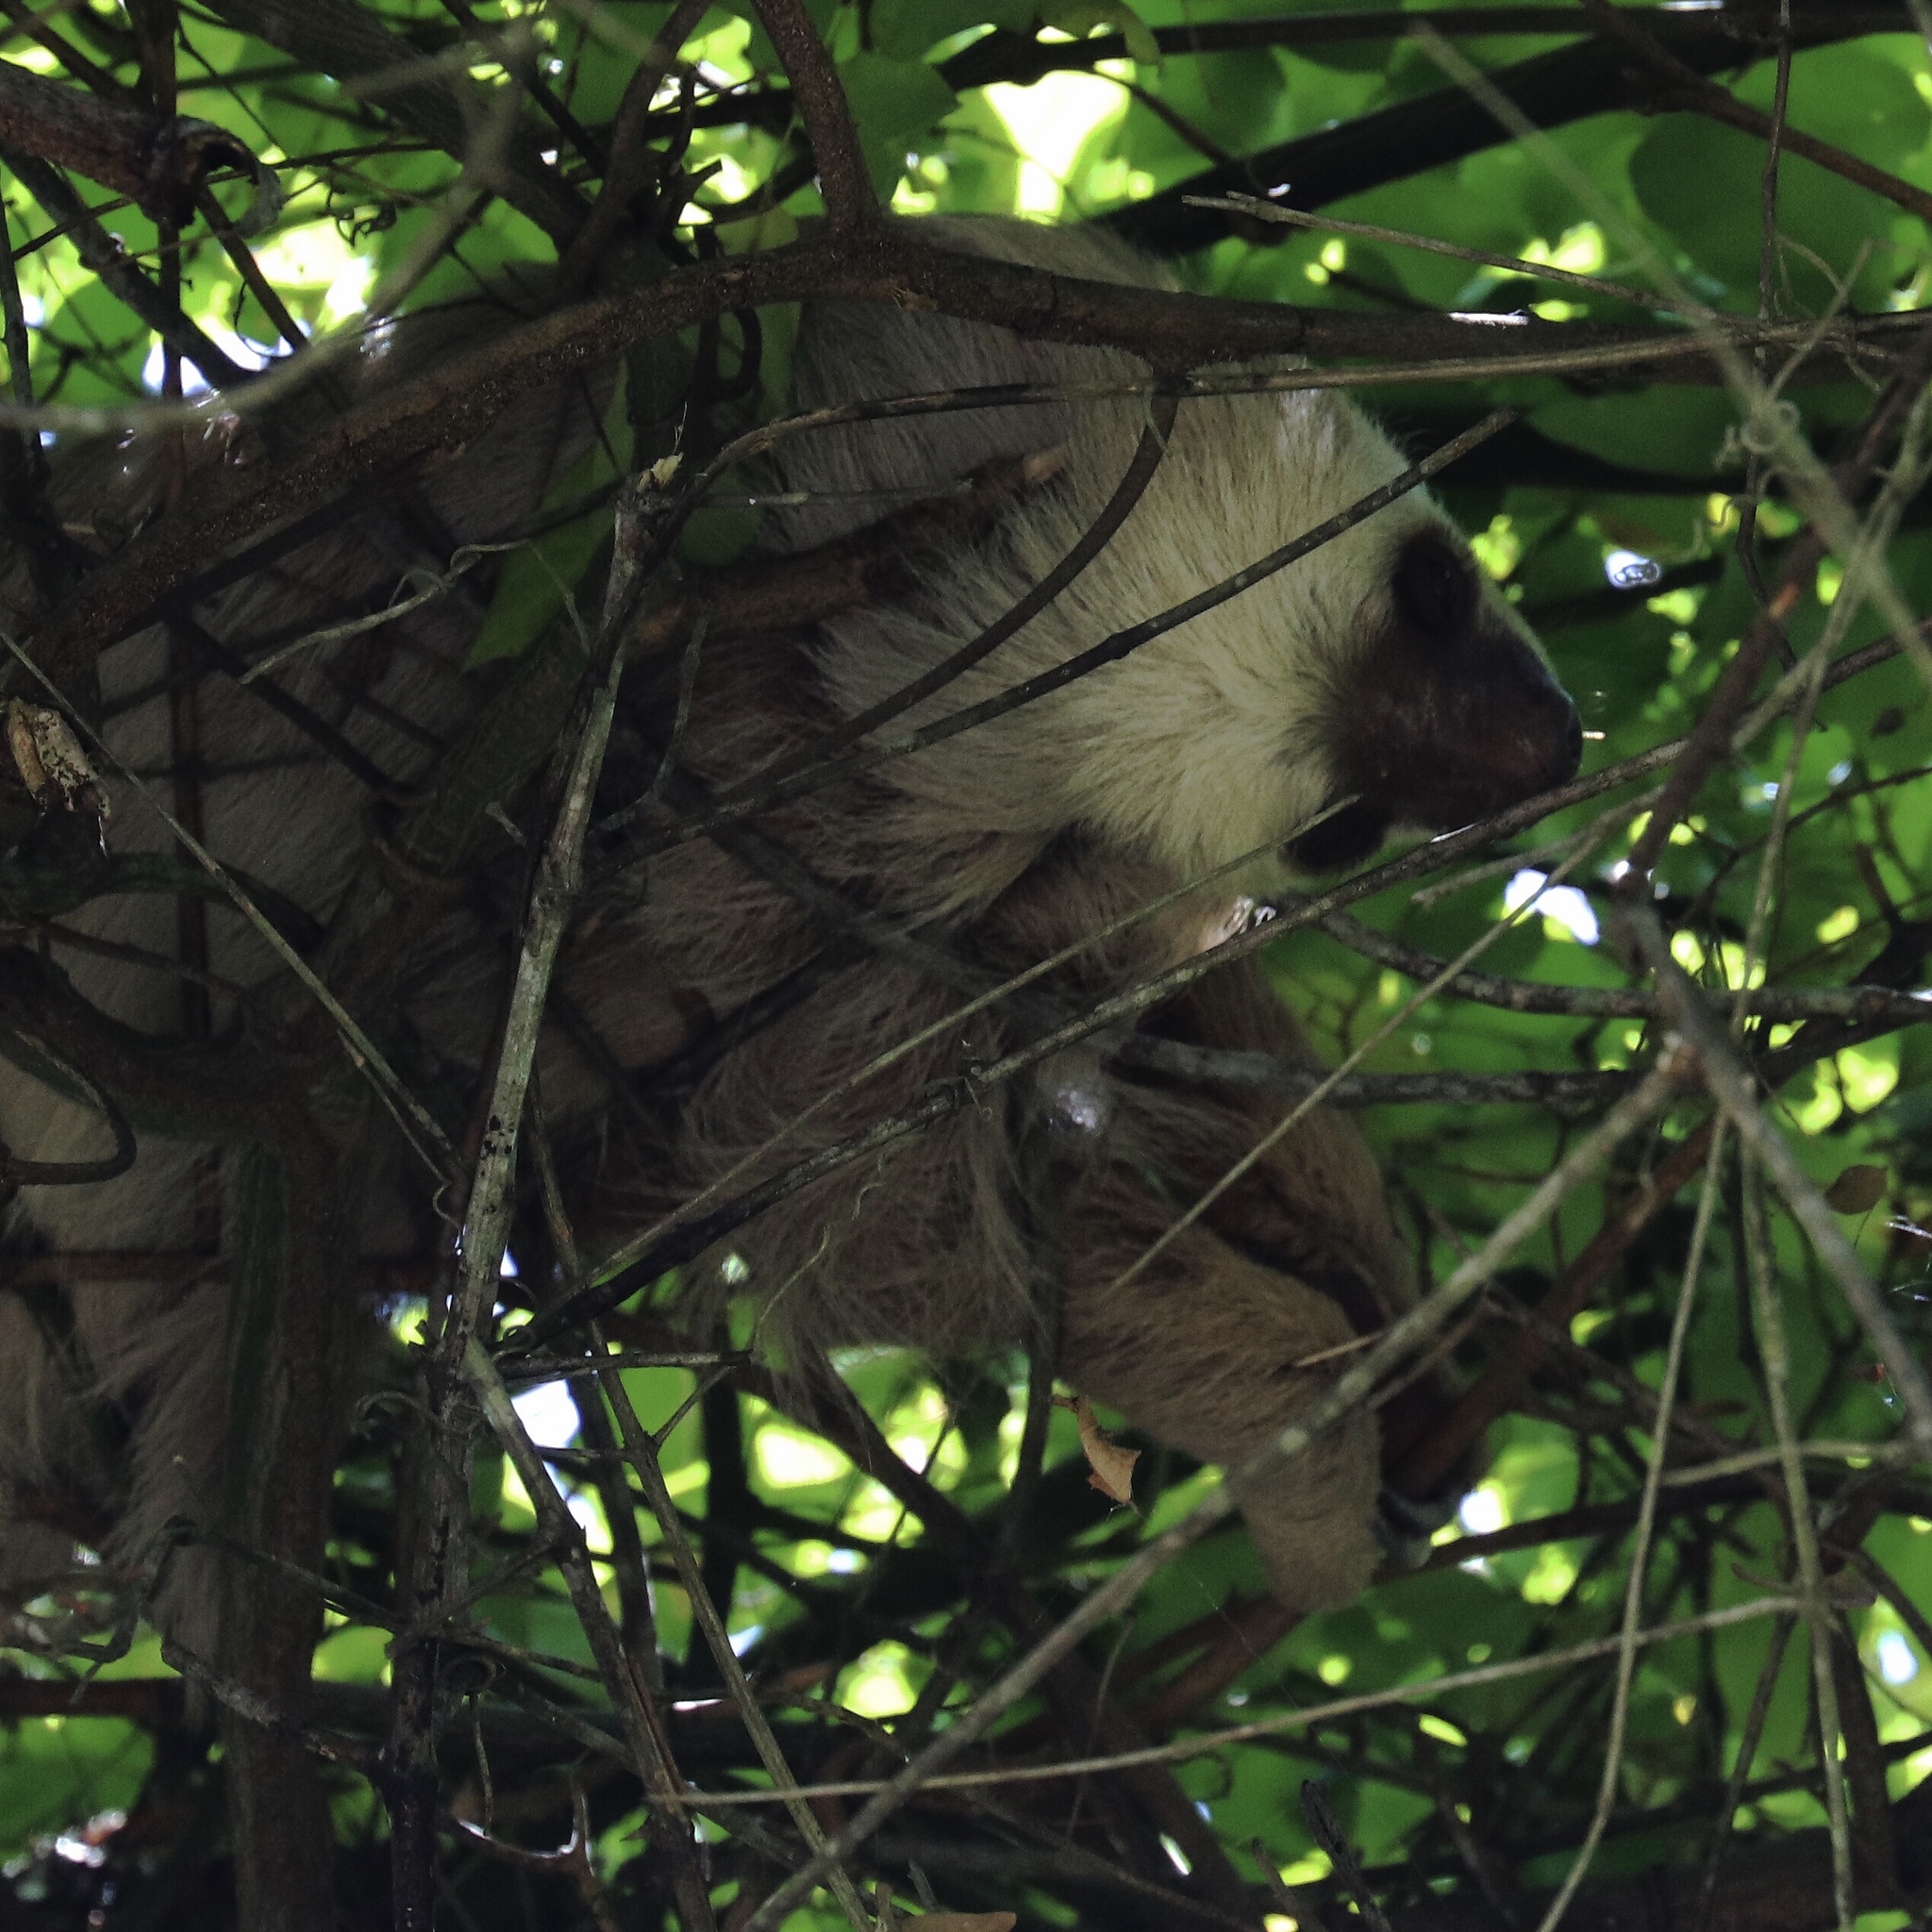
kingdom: Animalia
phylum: Chordata
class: Mammalia
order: Pilosa
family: Megalonychidae
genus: Choloepus
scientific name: Choloepus hoffmanni
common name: Hoffmann's two-toed sloth
